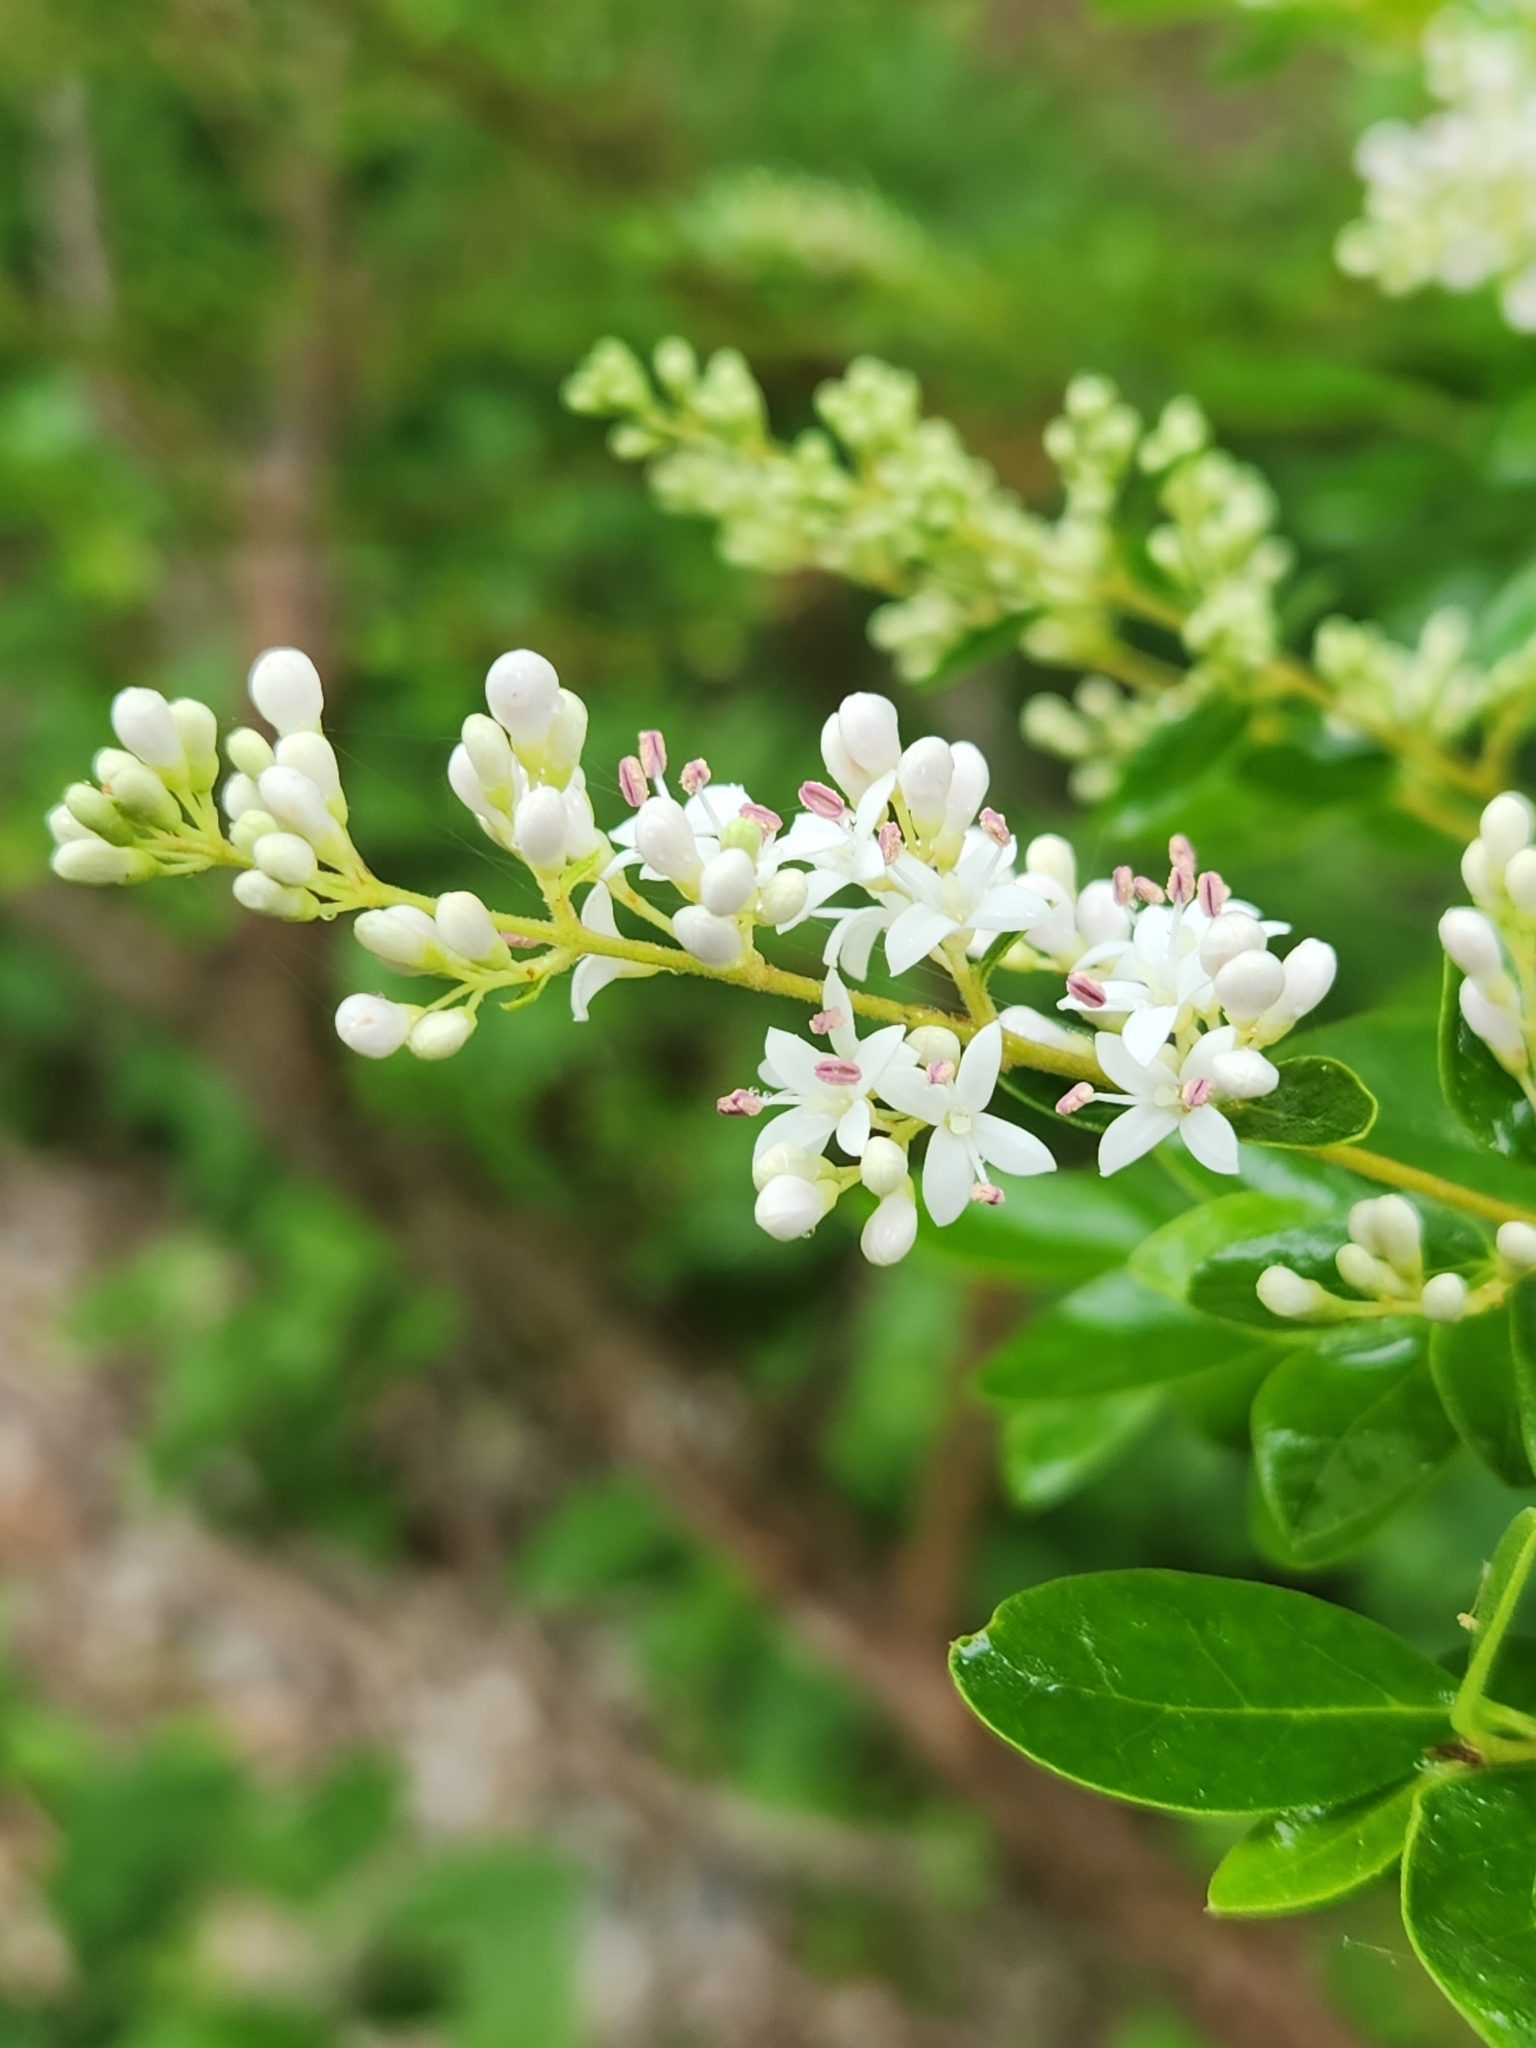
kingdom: Plantae
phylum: Tracheophyta
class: Magnoliopsida
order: Lamiales
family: Oleaceae
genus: Ligustrum
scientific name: Ligustrum sinense
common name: Chinese privet
